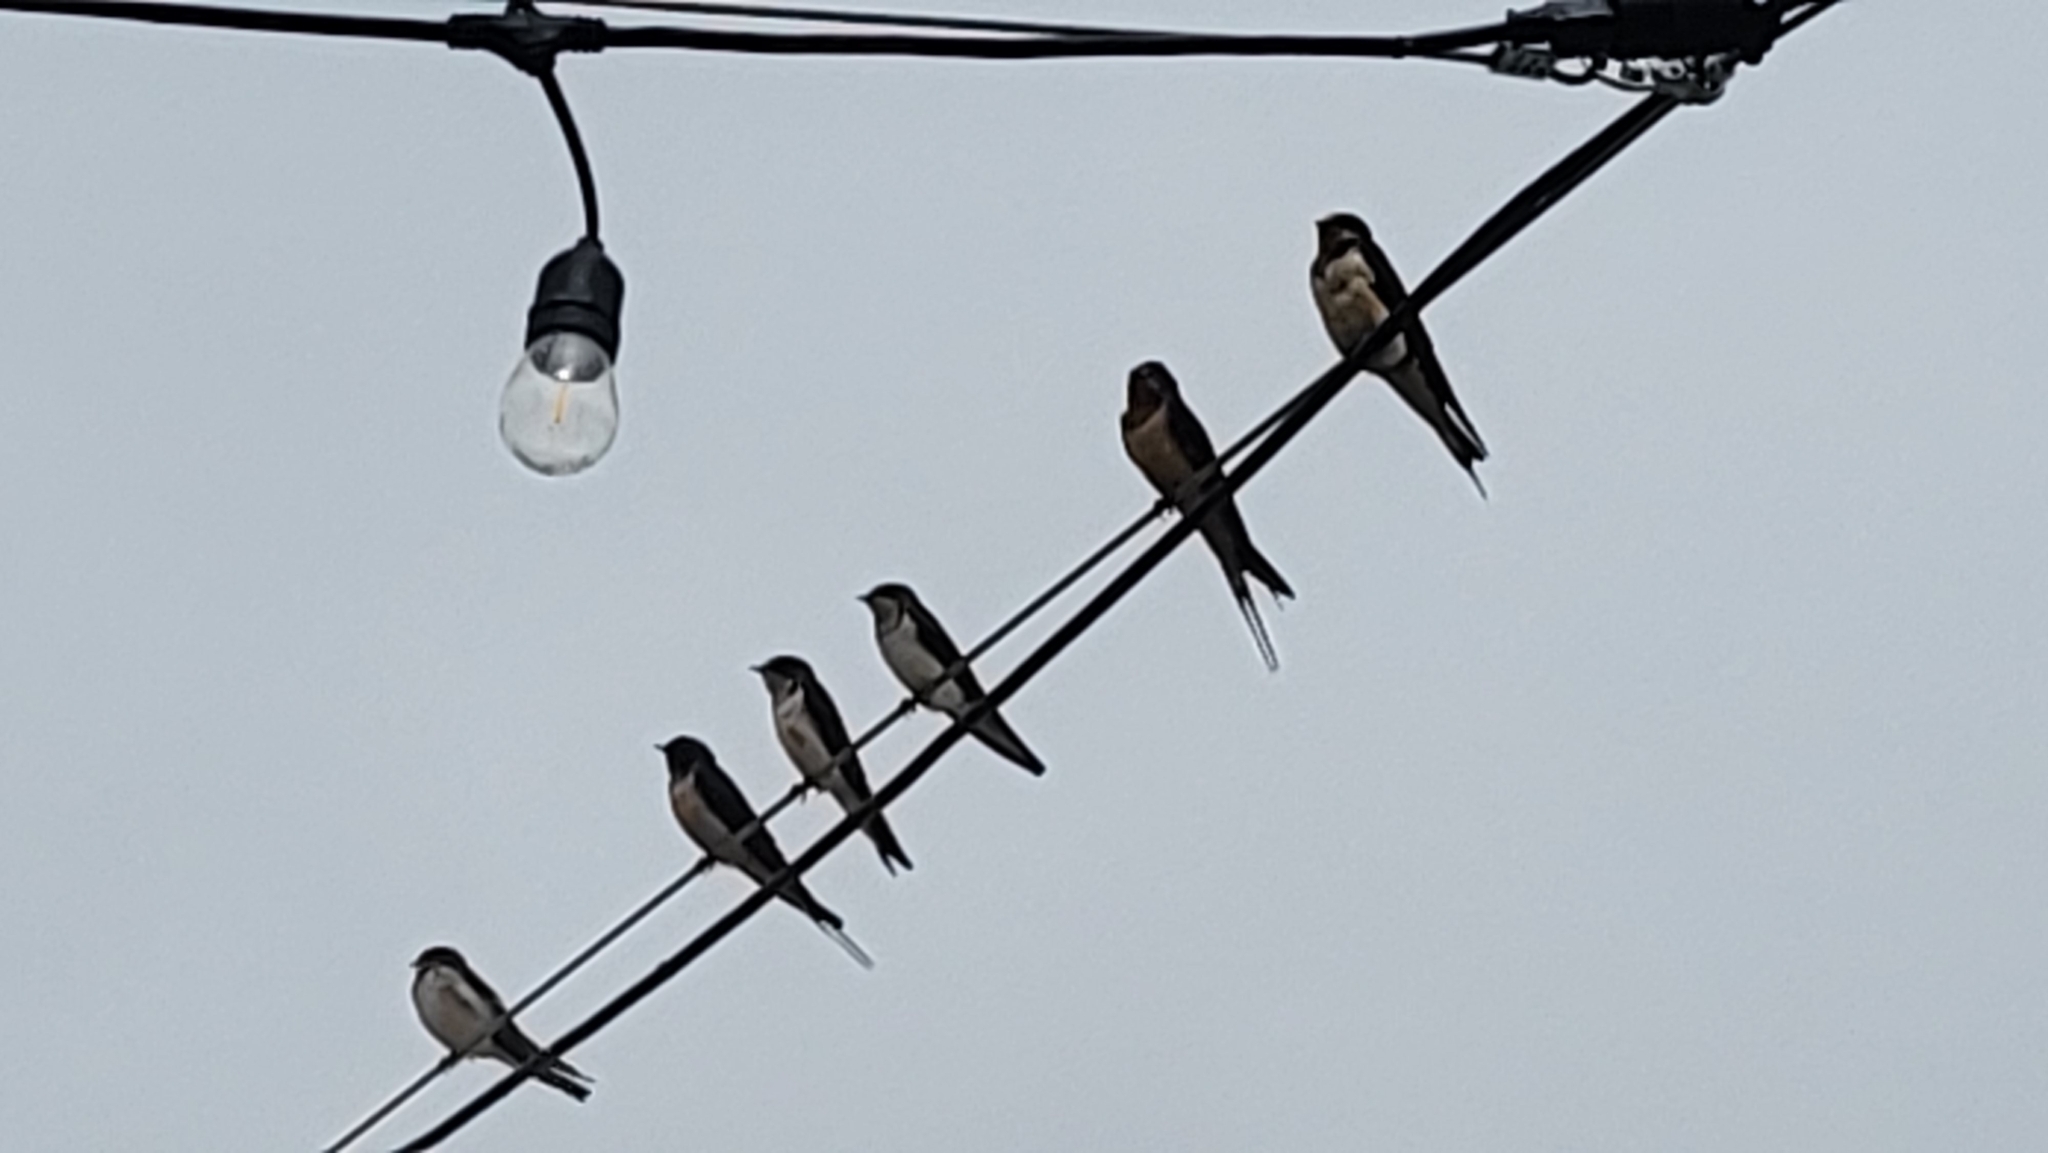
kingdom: Animalia
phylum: Chordata
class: Aves
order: Passeriformes
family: Hirundinidae
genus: Hirundo
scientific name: Hirundo rustica
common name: Barn swallow
